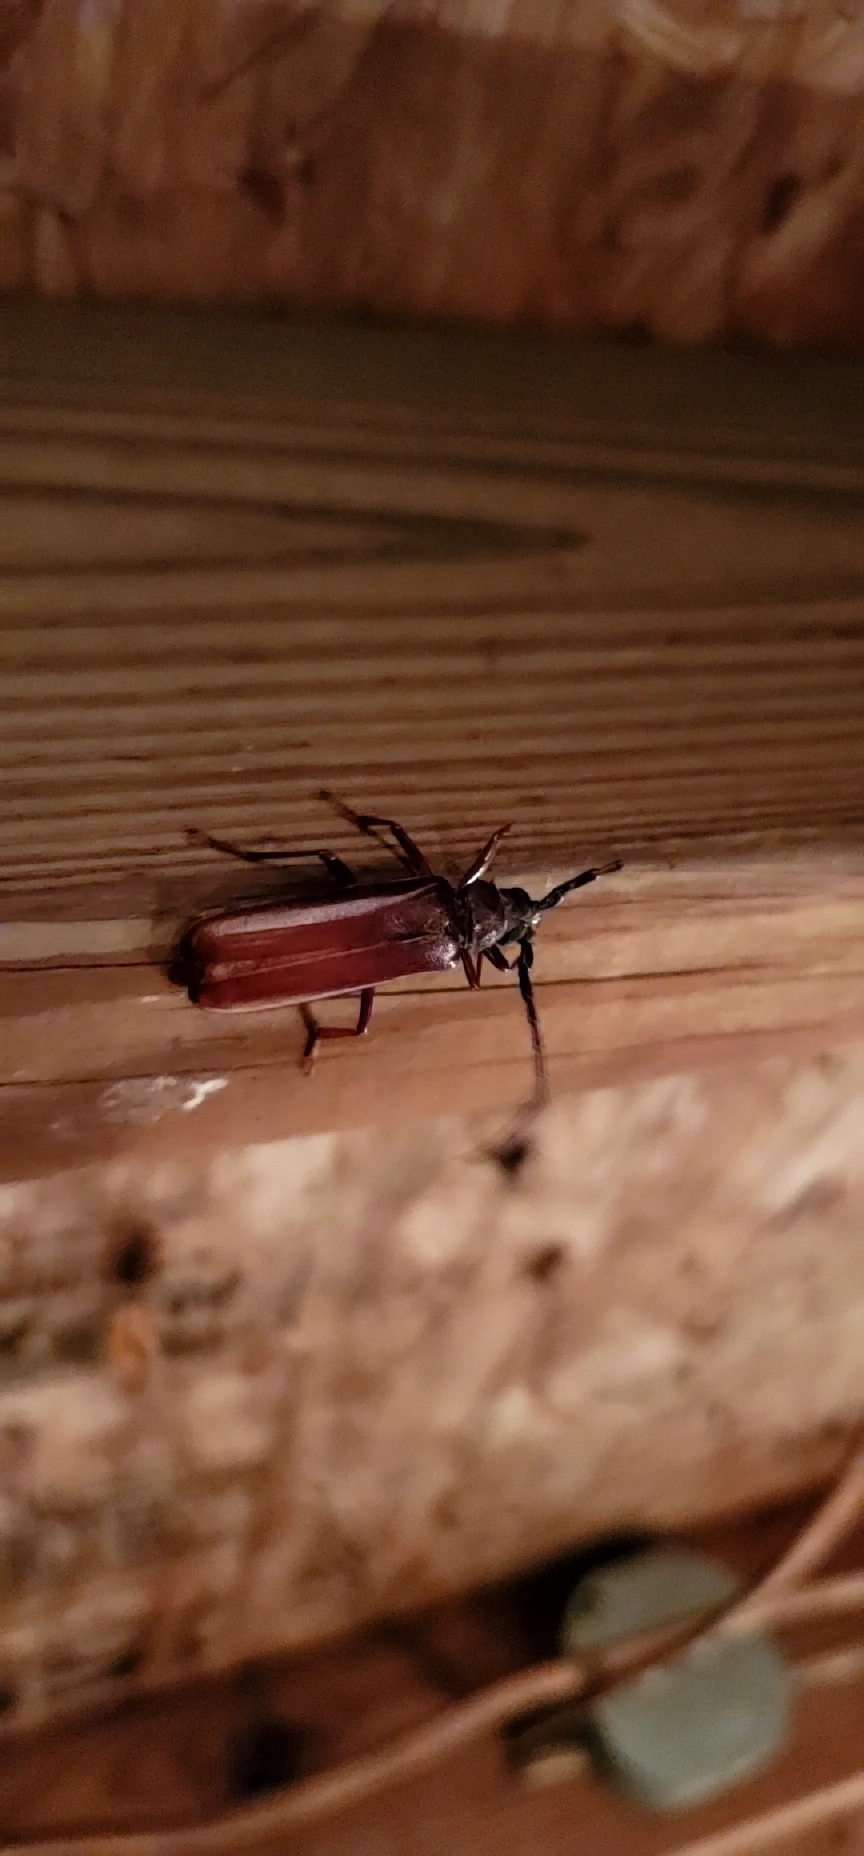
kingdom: Animalia
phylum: Arthropoda
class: Insecta
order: Coleoptera
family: Cerambycidae
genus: Orthosoma
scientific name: Orthosoma brunneum
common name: Brown prionid beetle
